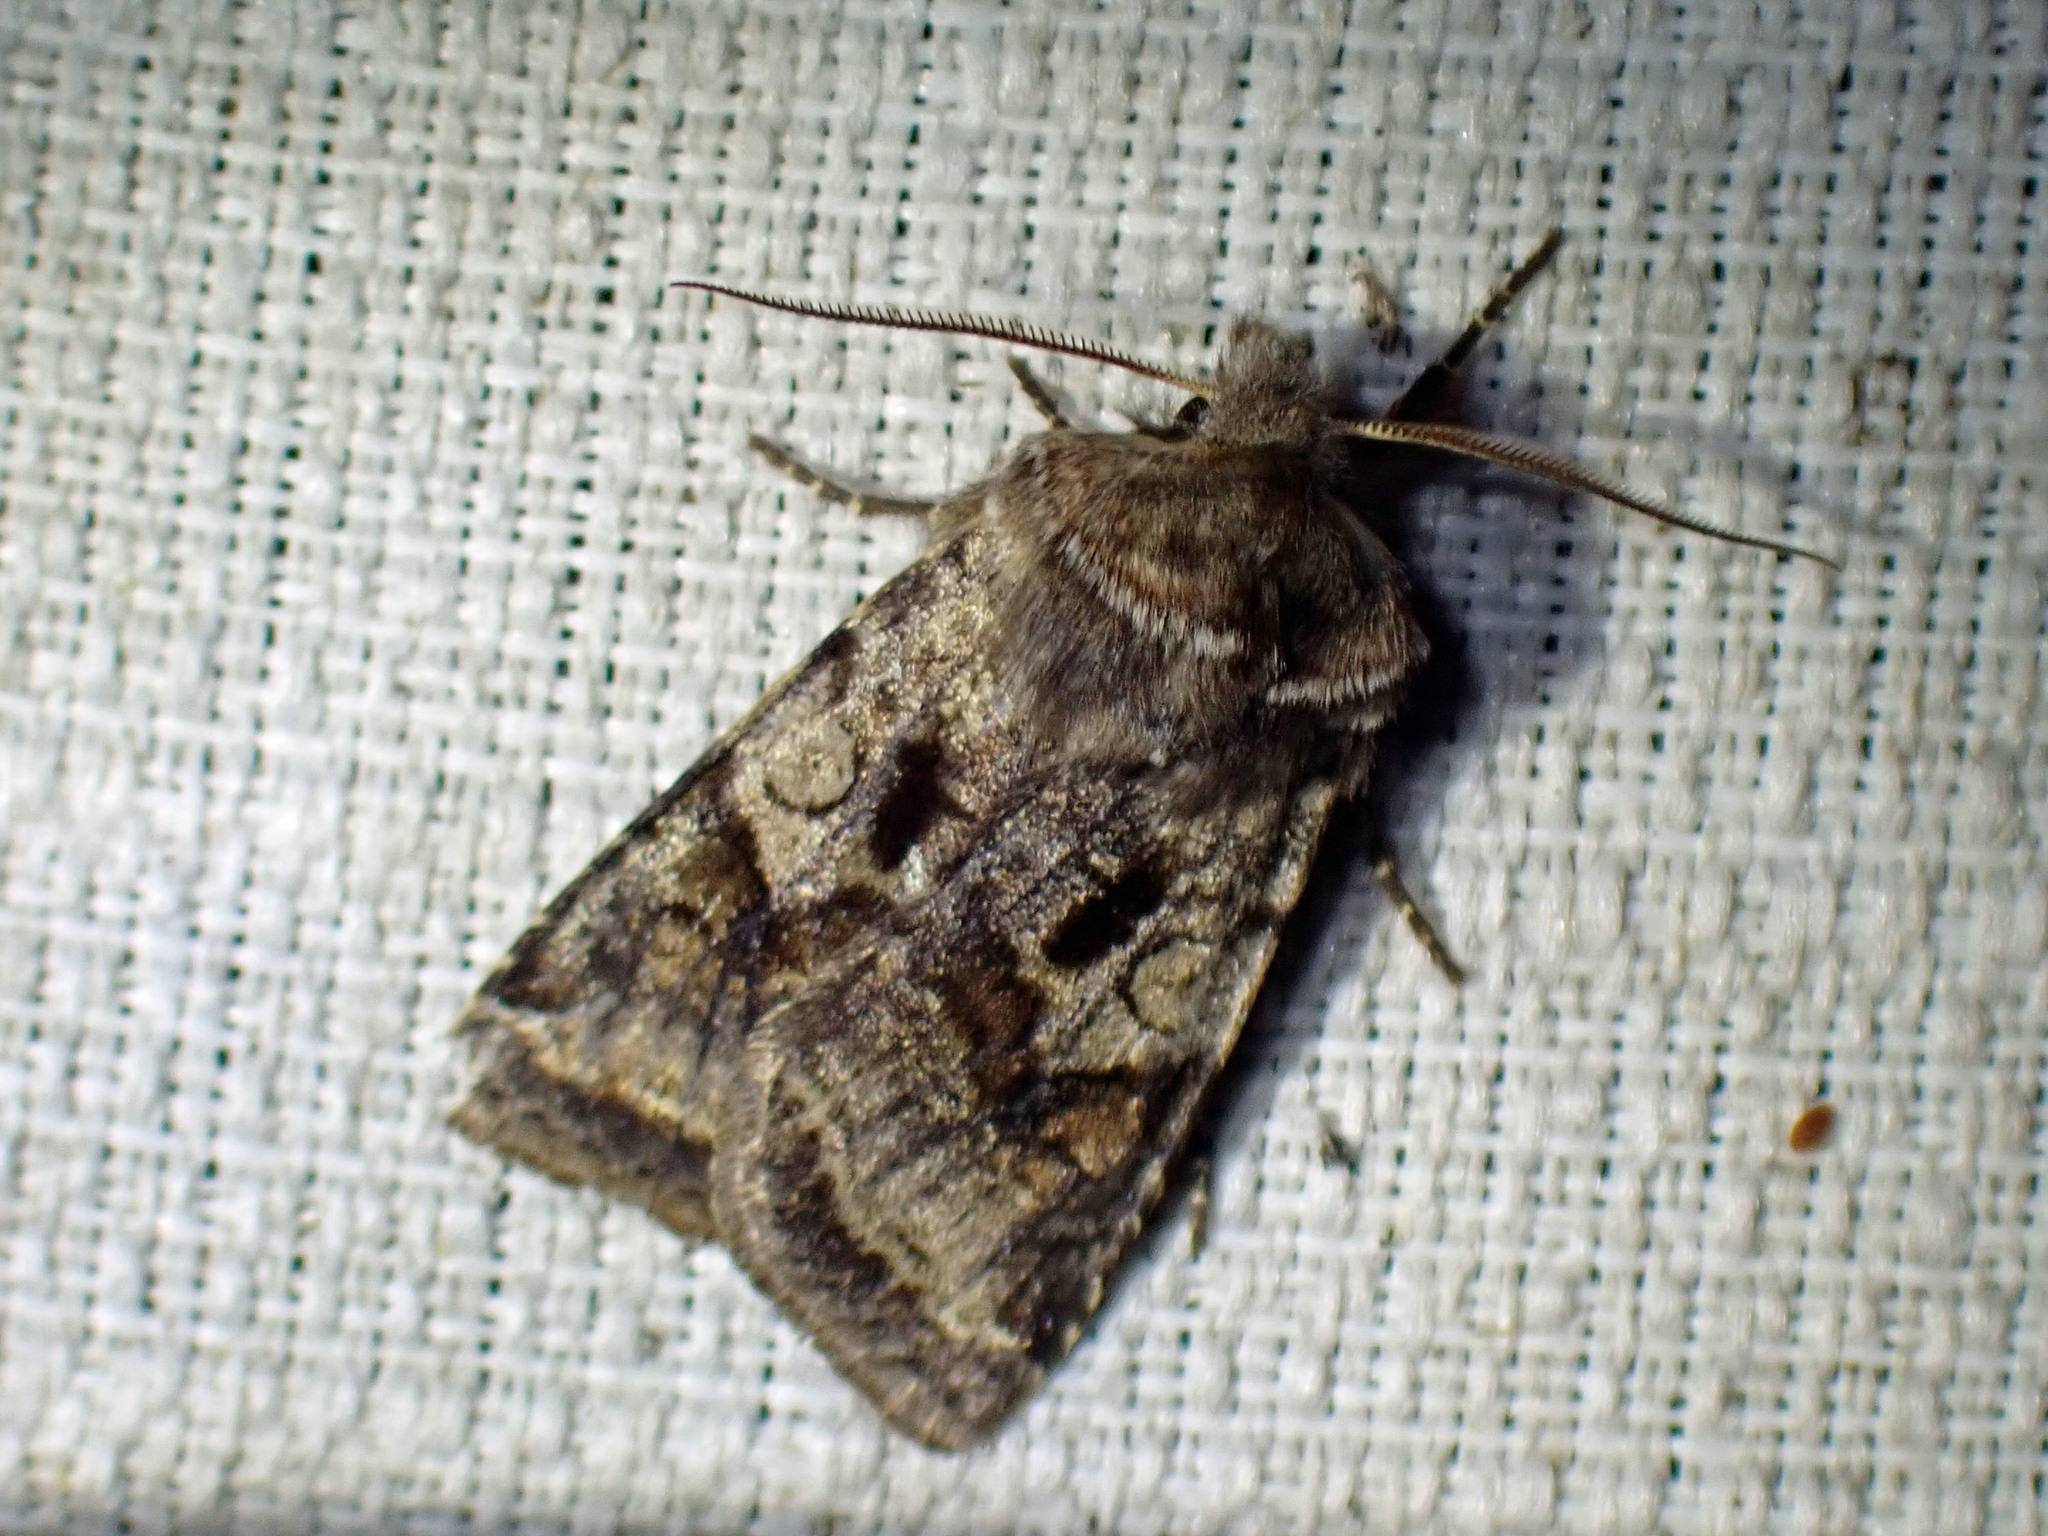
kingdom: Animalia
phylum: Arthropoda
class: Insecta
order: Lepidoptera
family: Noctuidae
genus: Cerastis
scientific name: Cerastis salicarum
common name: Willow dart
